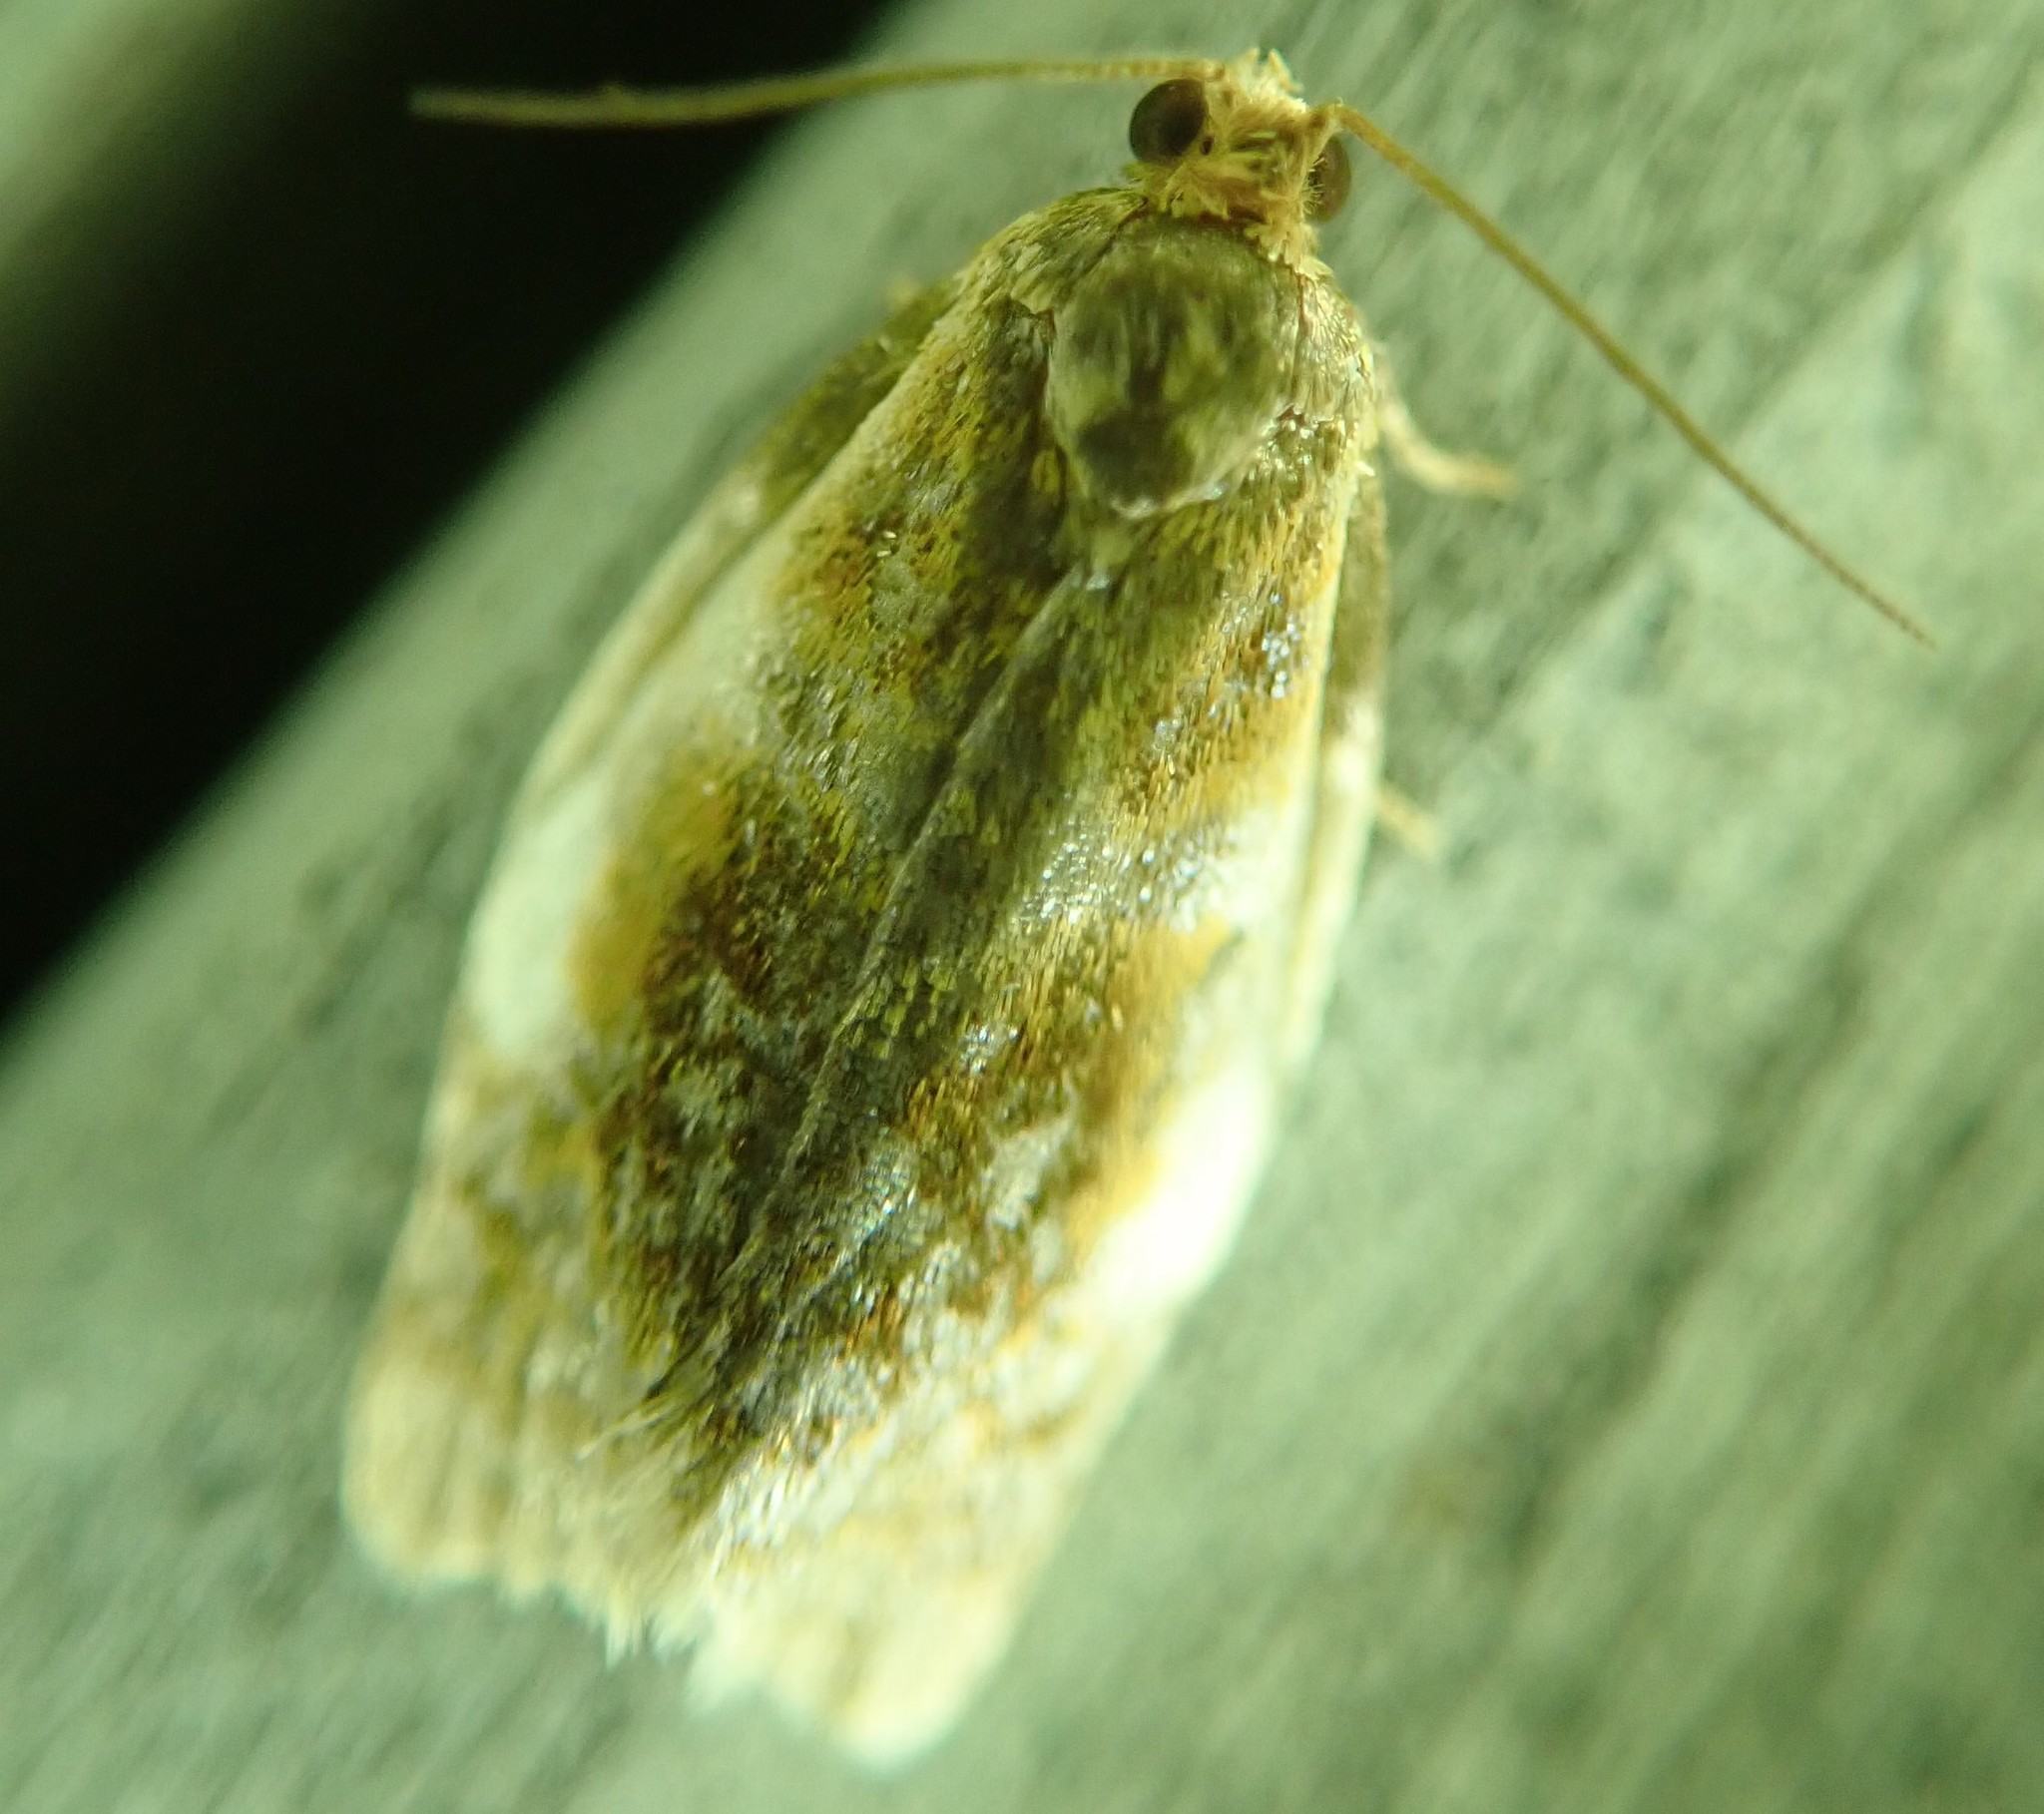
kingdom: Animalia
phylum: Arthropoda
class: Insecta
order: Lepidoptera
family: Tortricidae
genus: Clepsis
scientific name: Clepsis melaleucanus
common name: American apple tortrix
